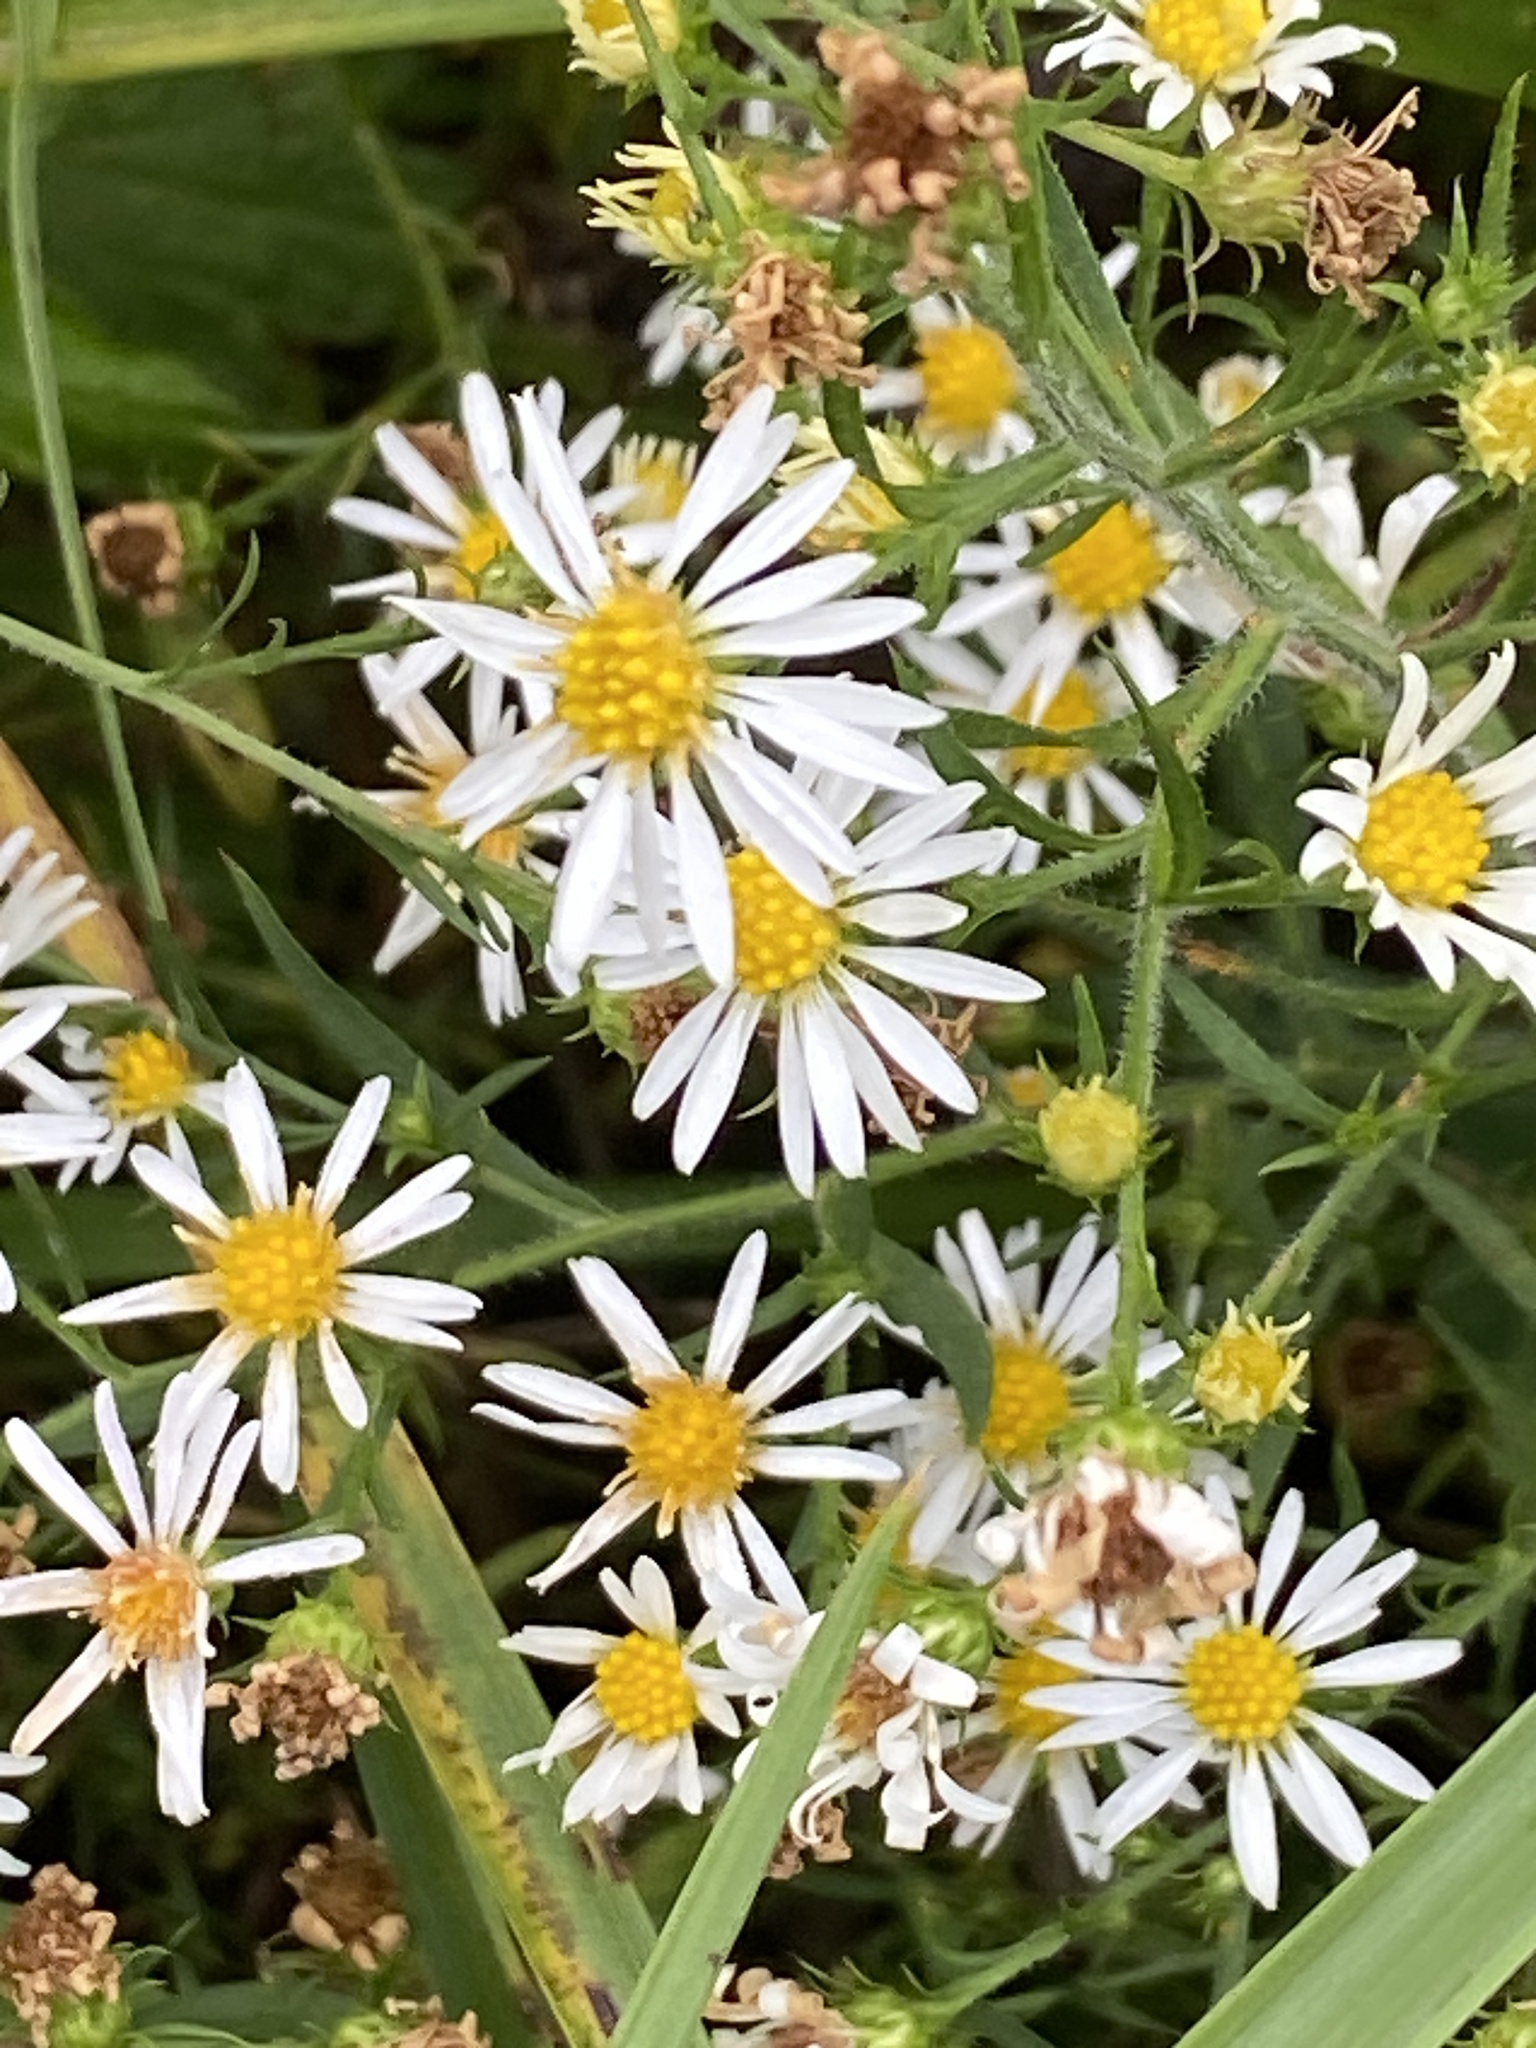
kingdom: Plantae
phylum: Tracheophyta
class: Magnoliopsida
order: Asterales
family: Asteraceae
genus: Symphyotrichum
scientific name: Symphyotrichum pilosum
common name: Awl aster
